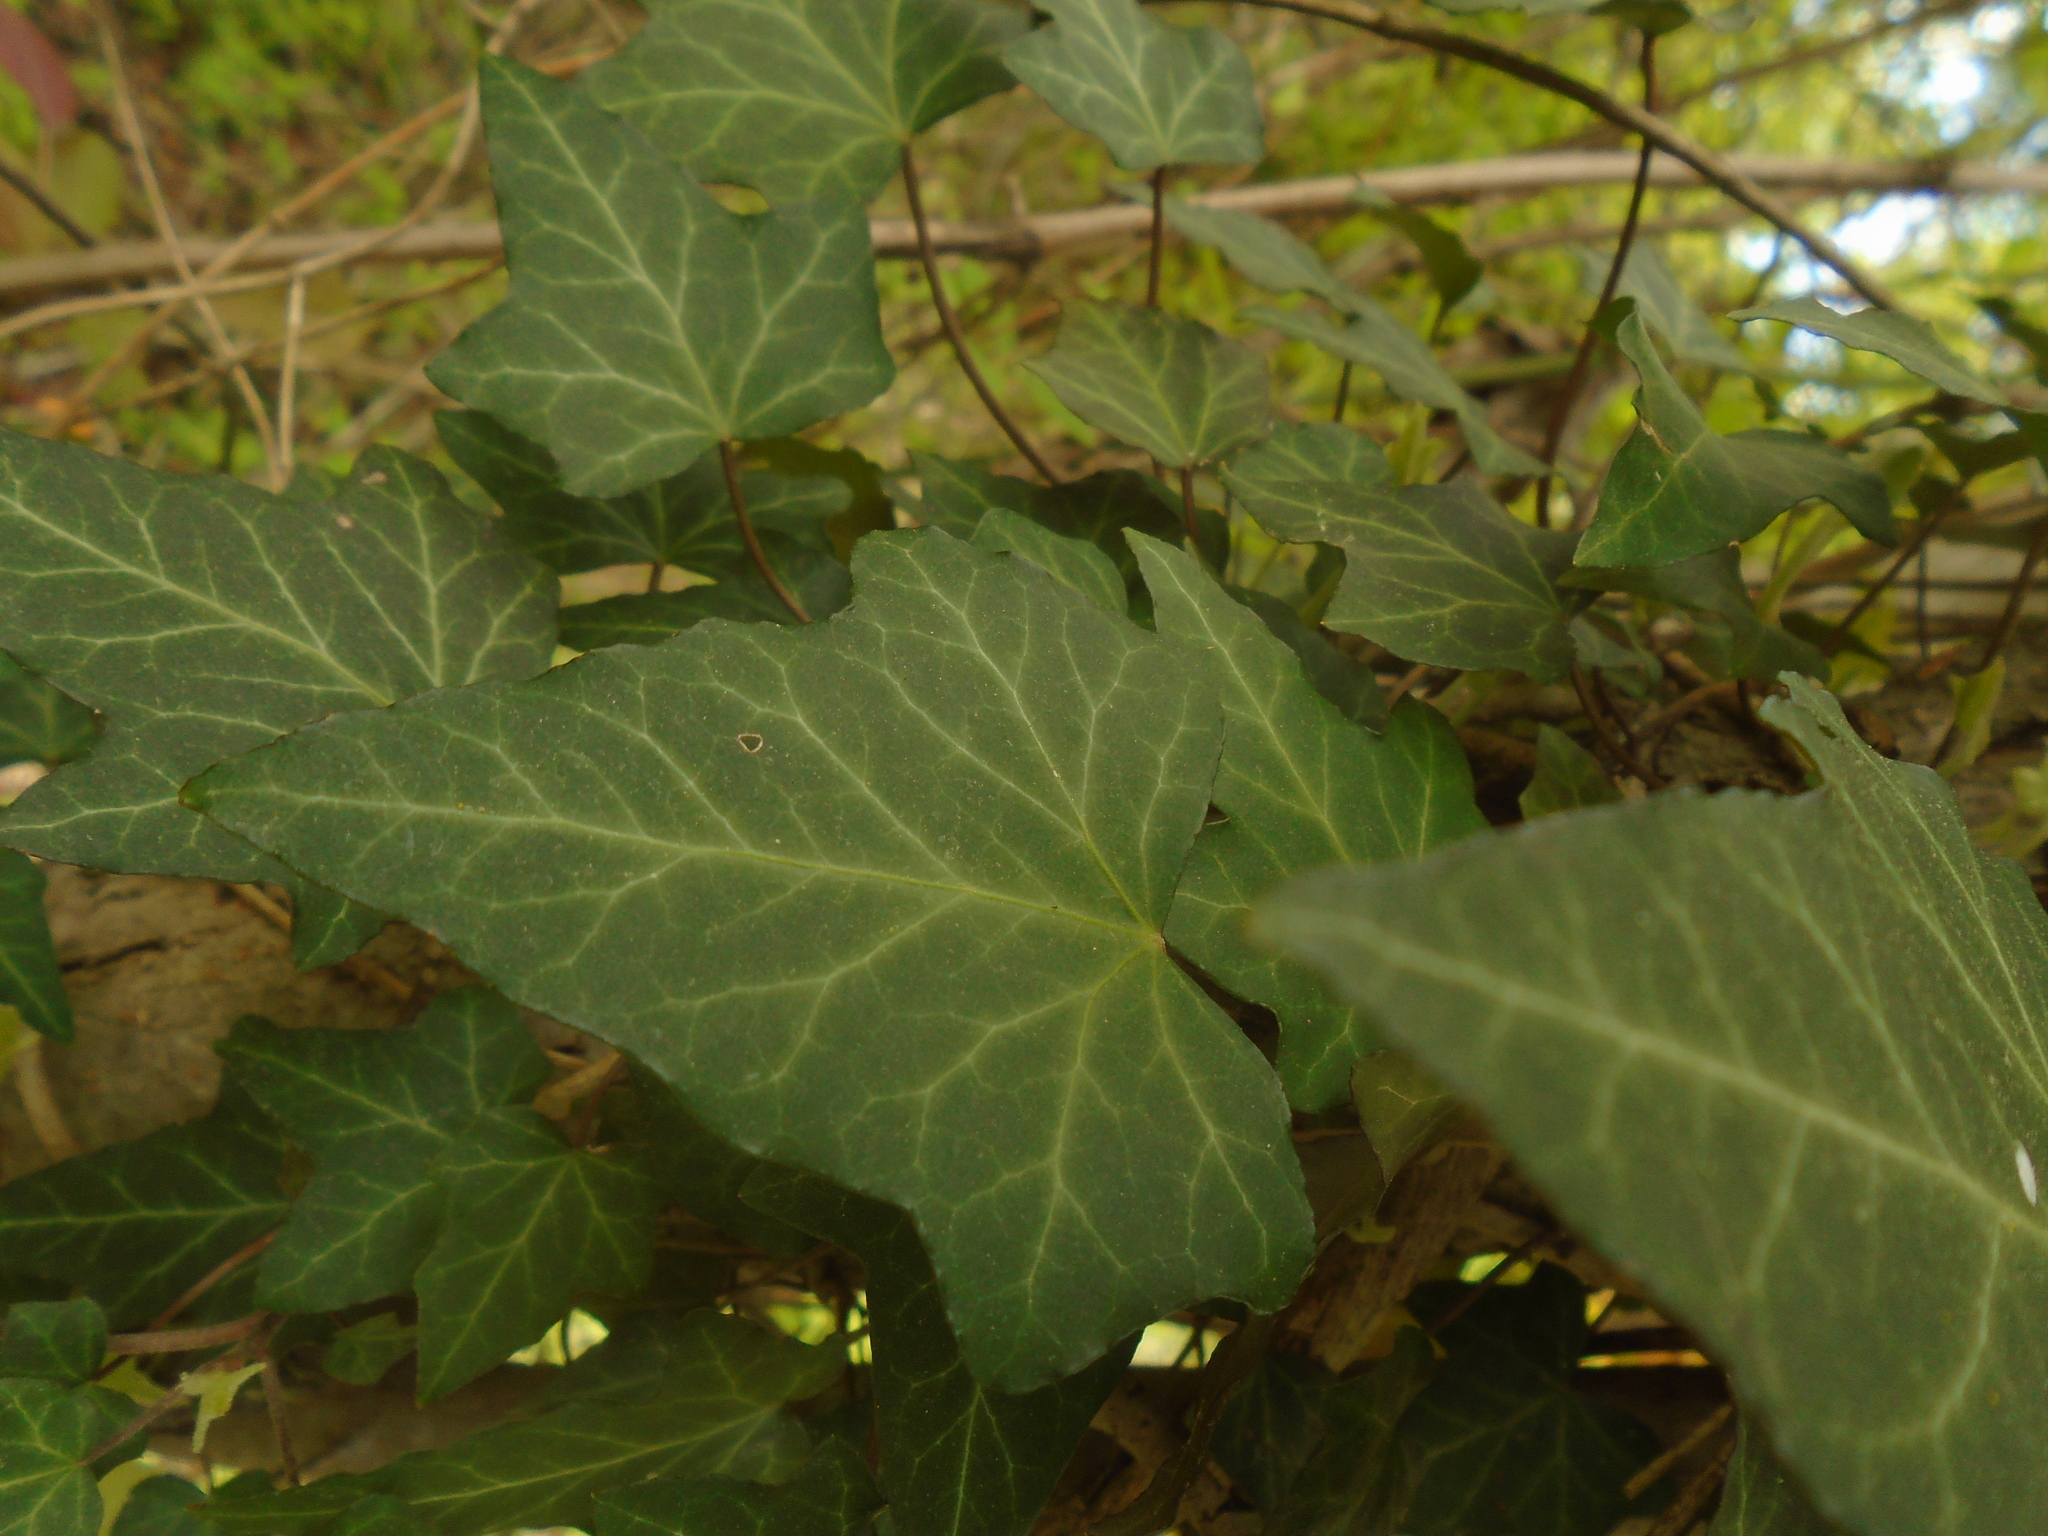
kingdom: Plantae
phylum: Tracheophyta
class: Magnoliopsida
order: Apiales
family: Araliaceae
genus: Hedera
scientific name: Hedera helix
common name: Ivy
